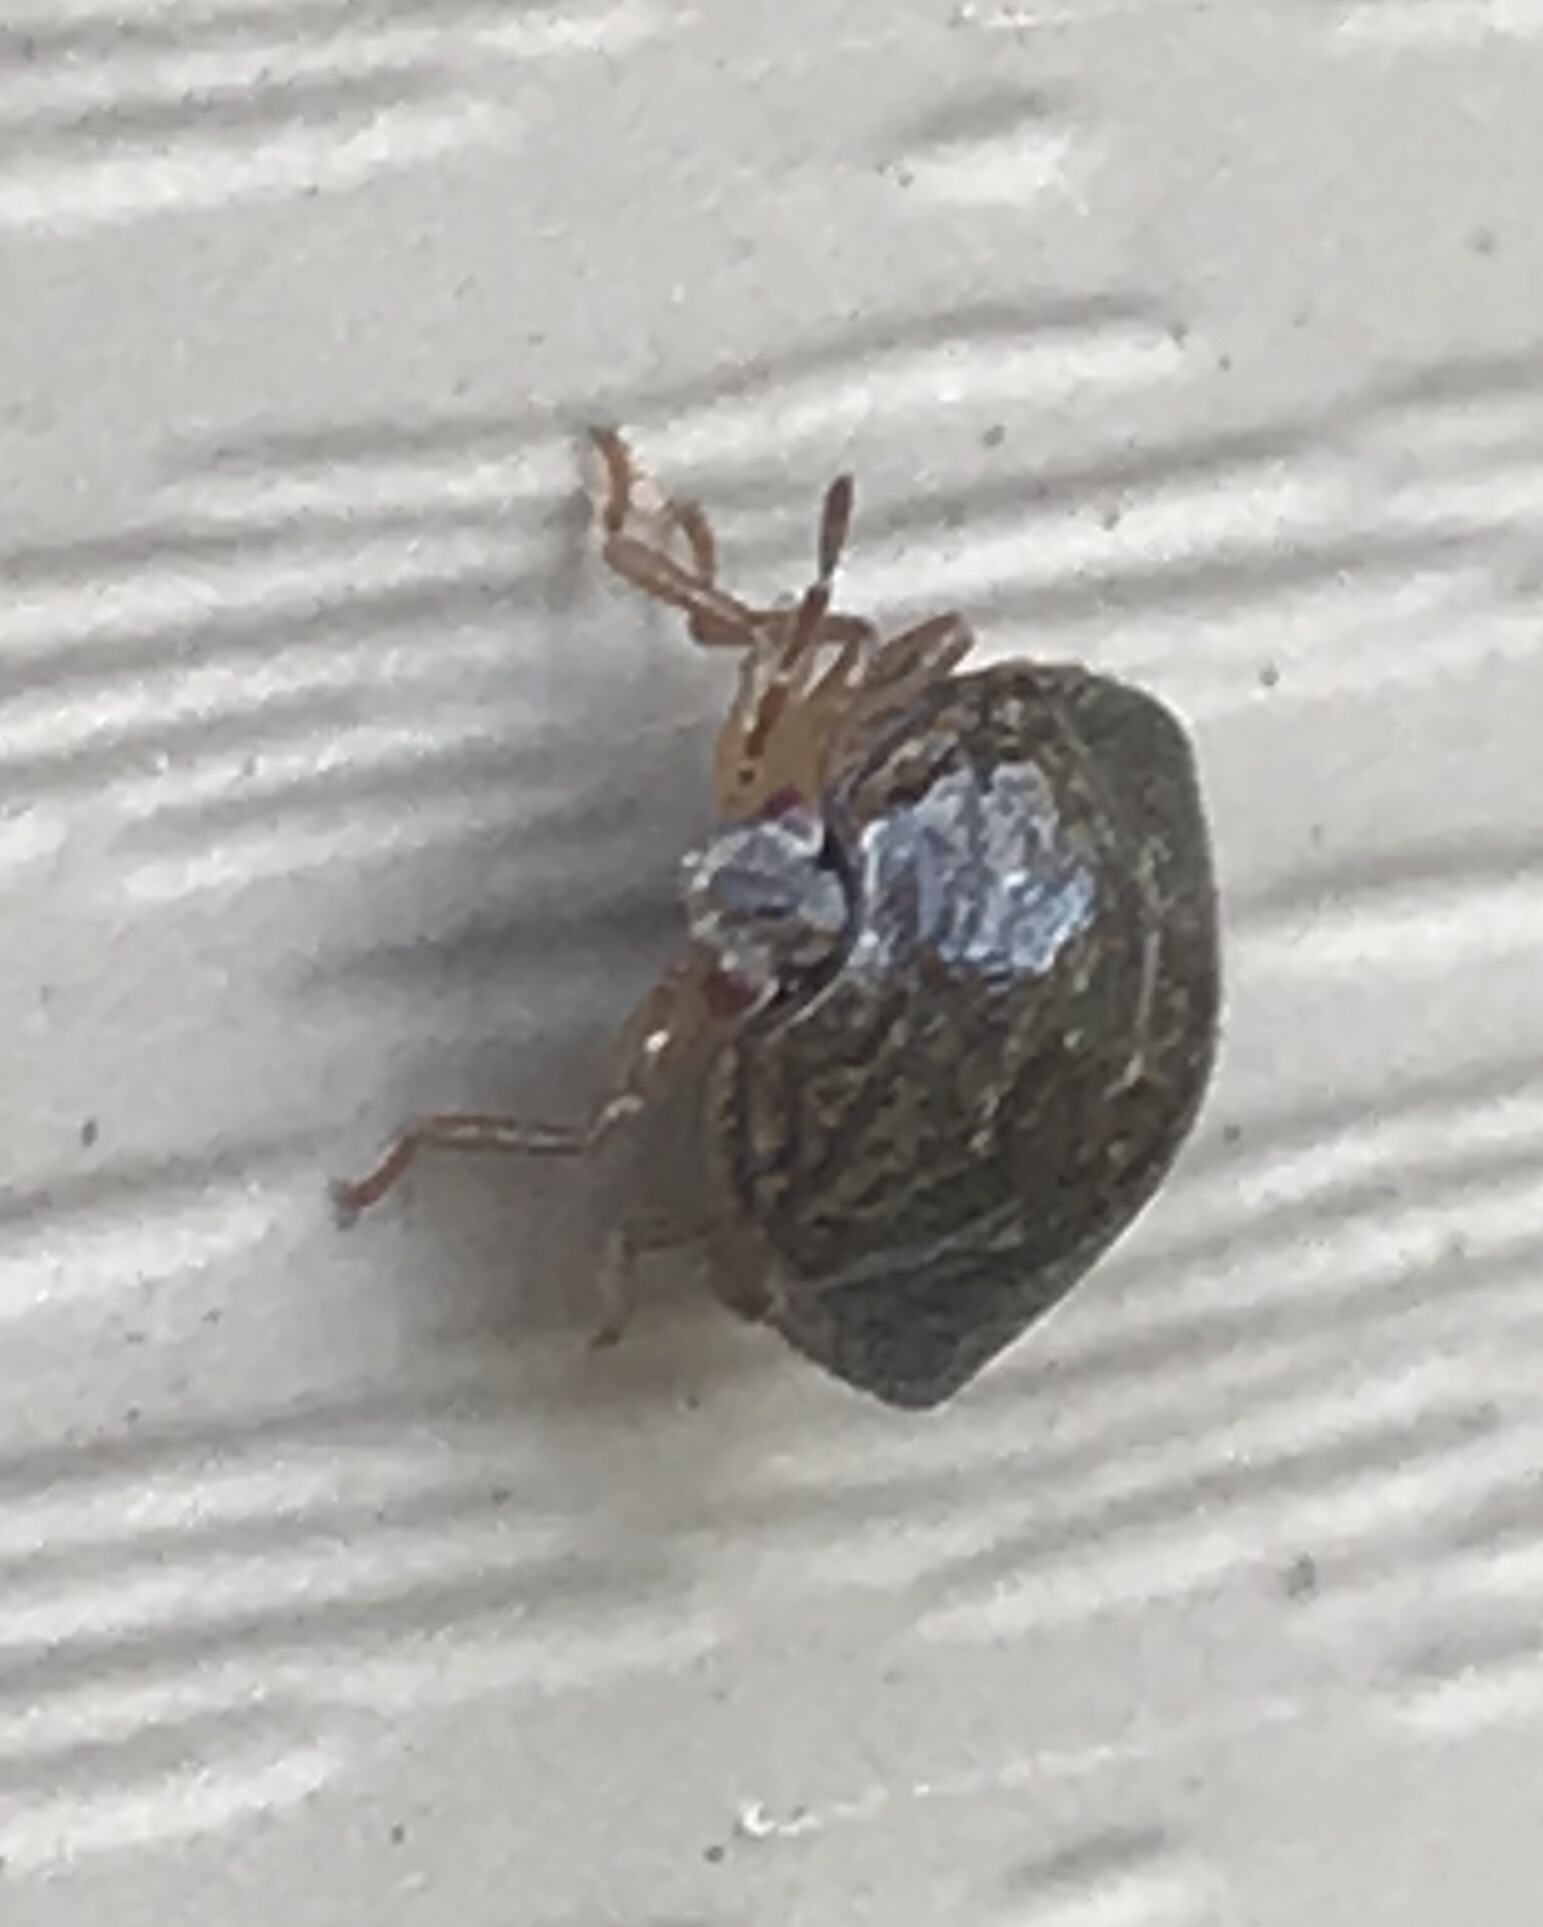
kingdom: Animalia
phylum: Arthropoda
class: Insecta
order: Hemiptera
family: Plataspidae
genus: Megacopta
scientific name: Megacopta cribraria
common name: Bean plataspid
